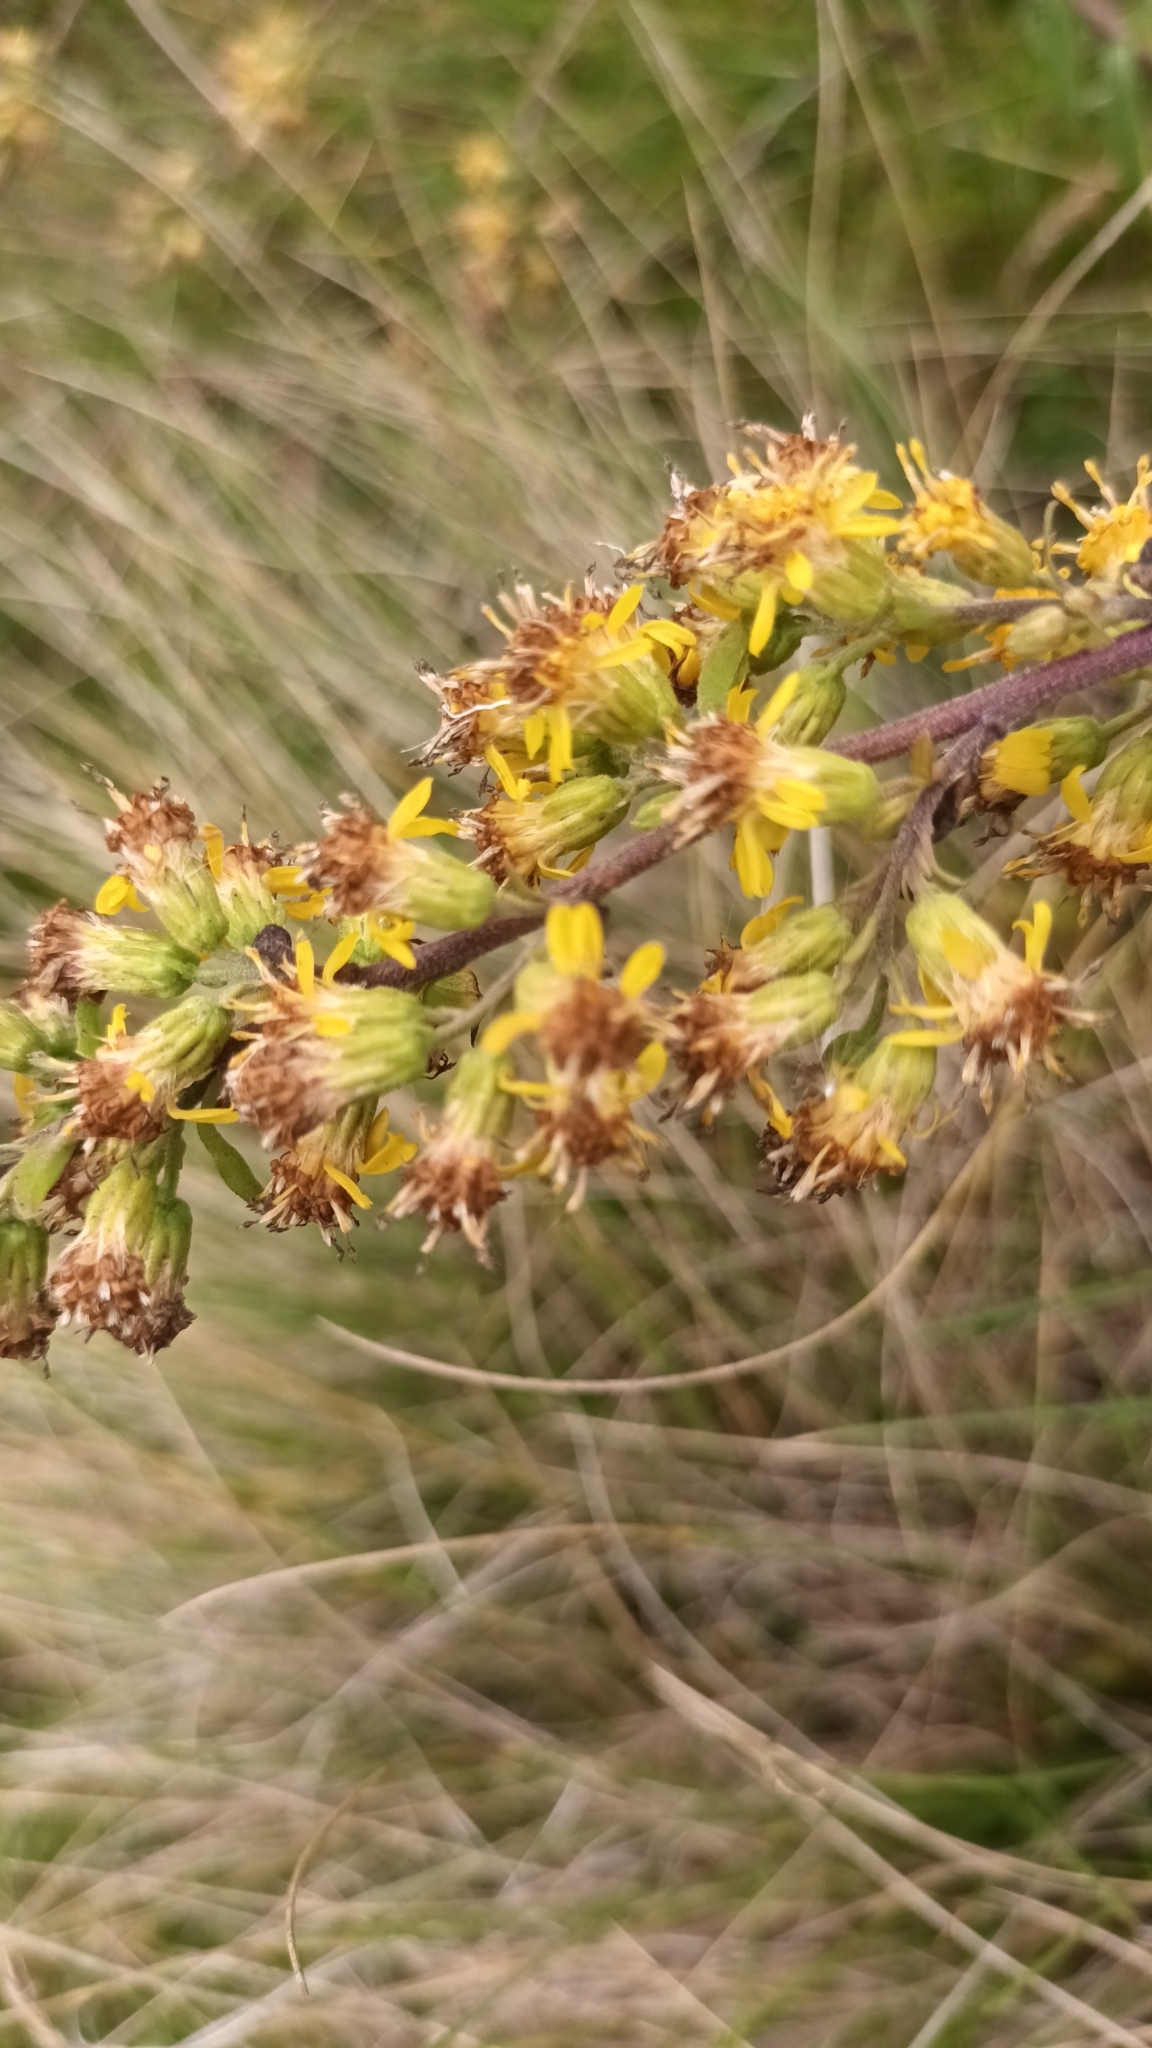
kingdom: Plantae
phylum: Tracheophyta
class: Magnoliopsida
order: Asterales
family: Asteraceae
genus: Solidago
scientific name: Solidago virgaurea
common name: Goldenrod
